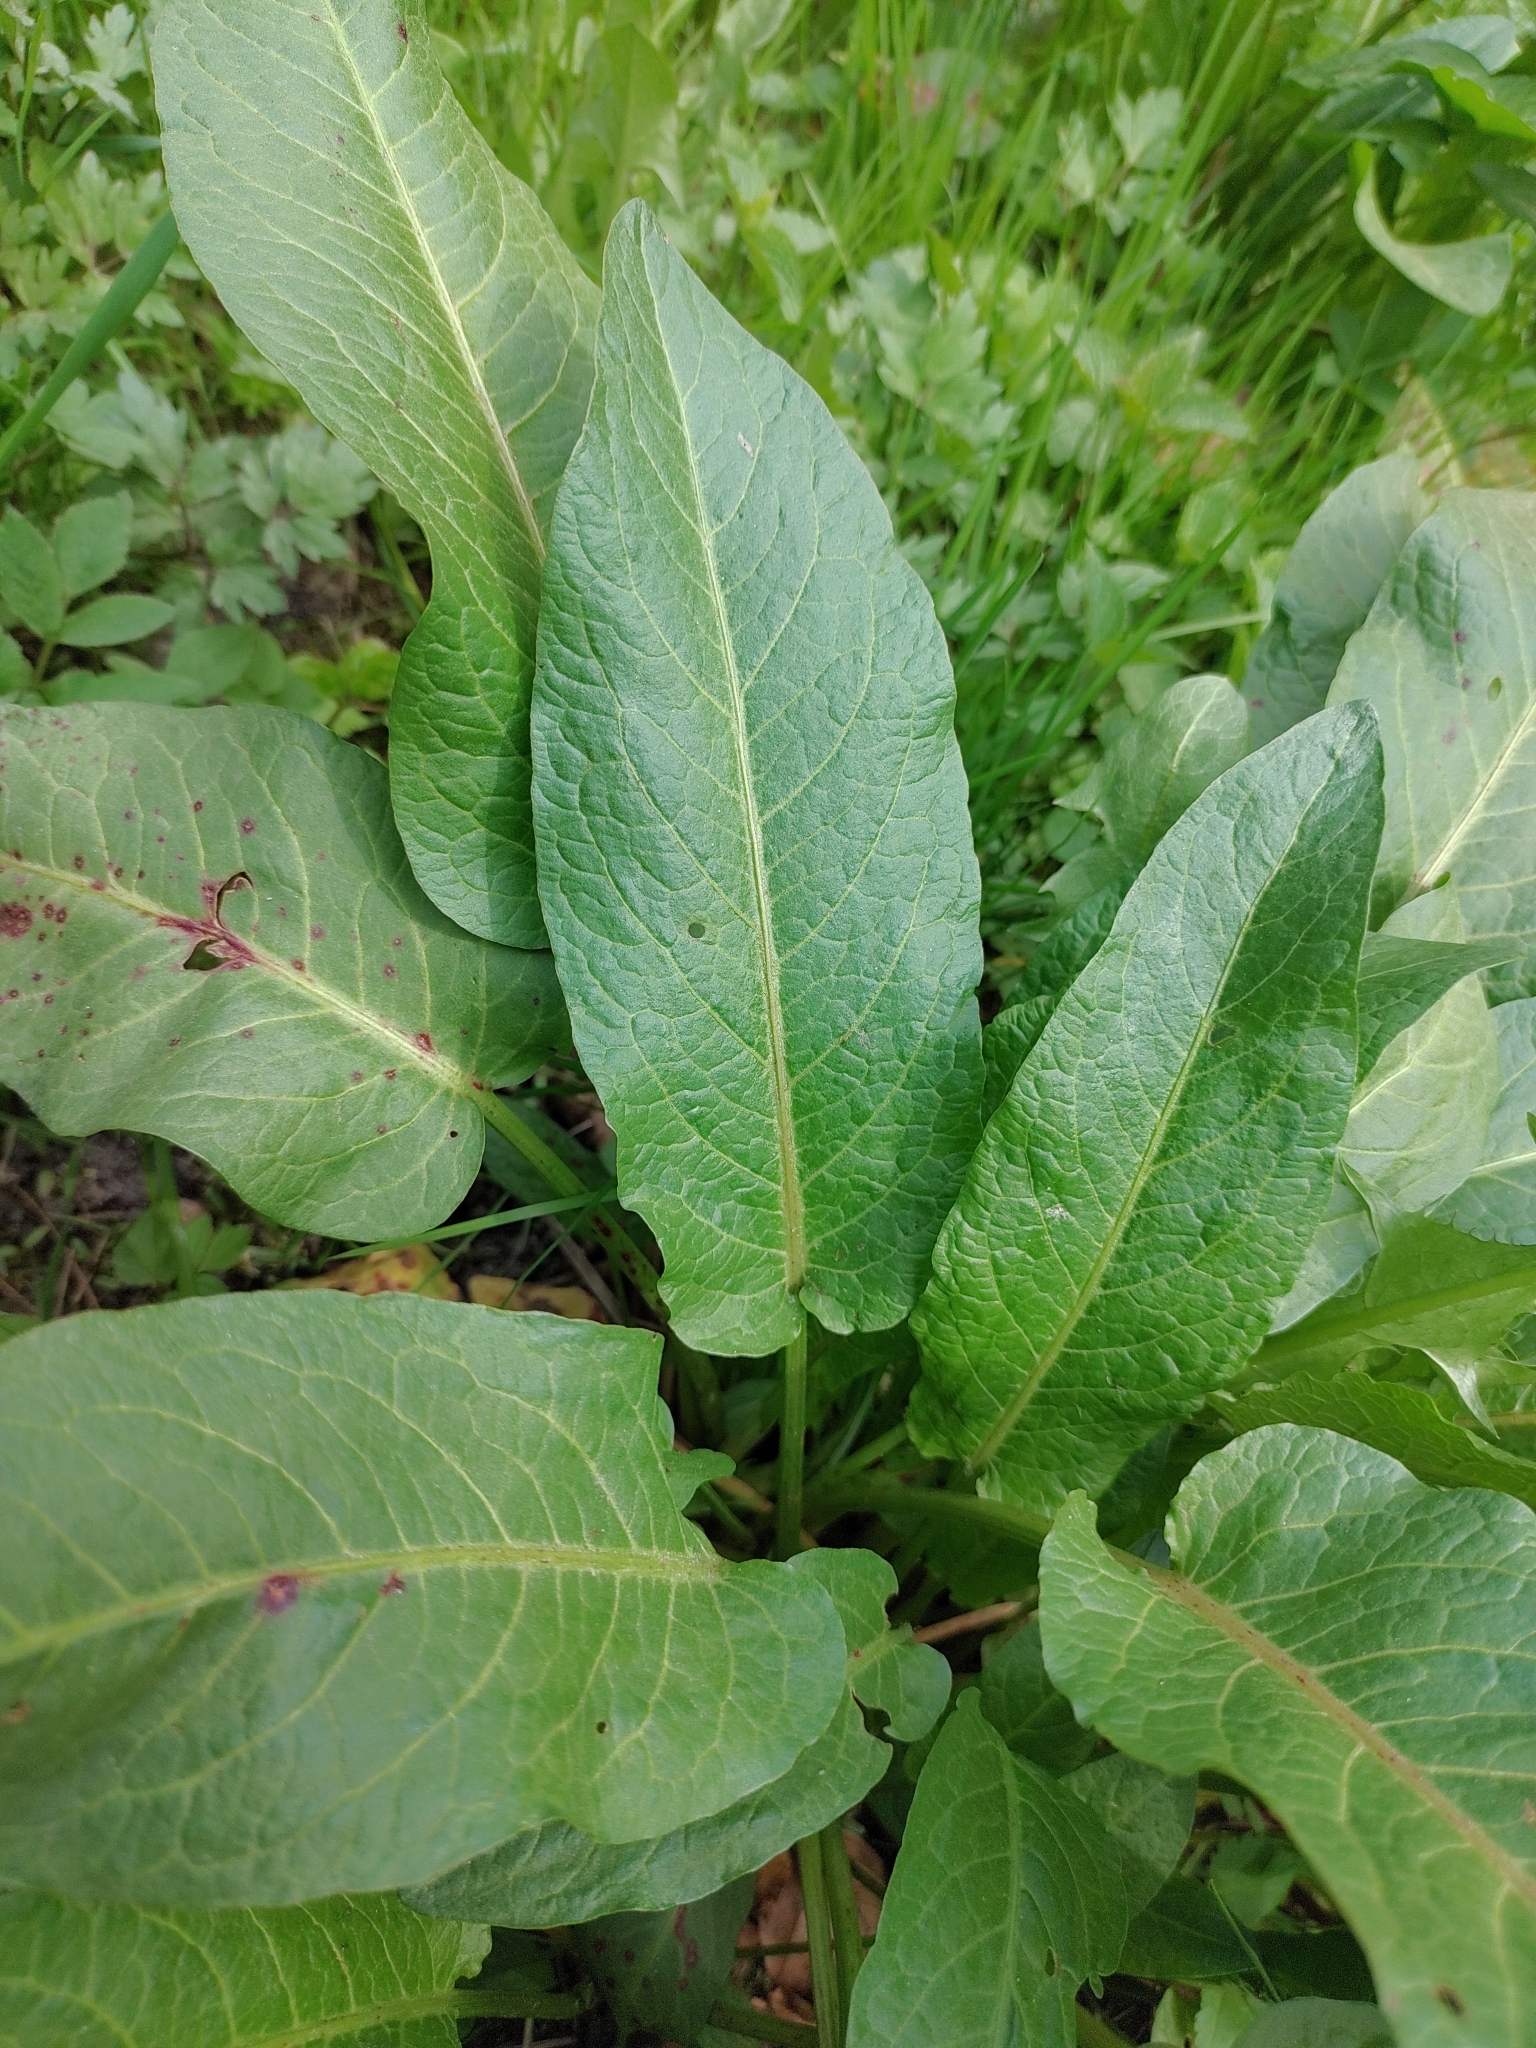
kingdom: Plantae
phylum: Tracheophyta
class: Magnoliopsida
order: Caryophyllales
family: Polygonaceae
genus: Rumex
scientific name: Rumex obtusifolius
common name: Bitter dock
